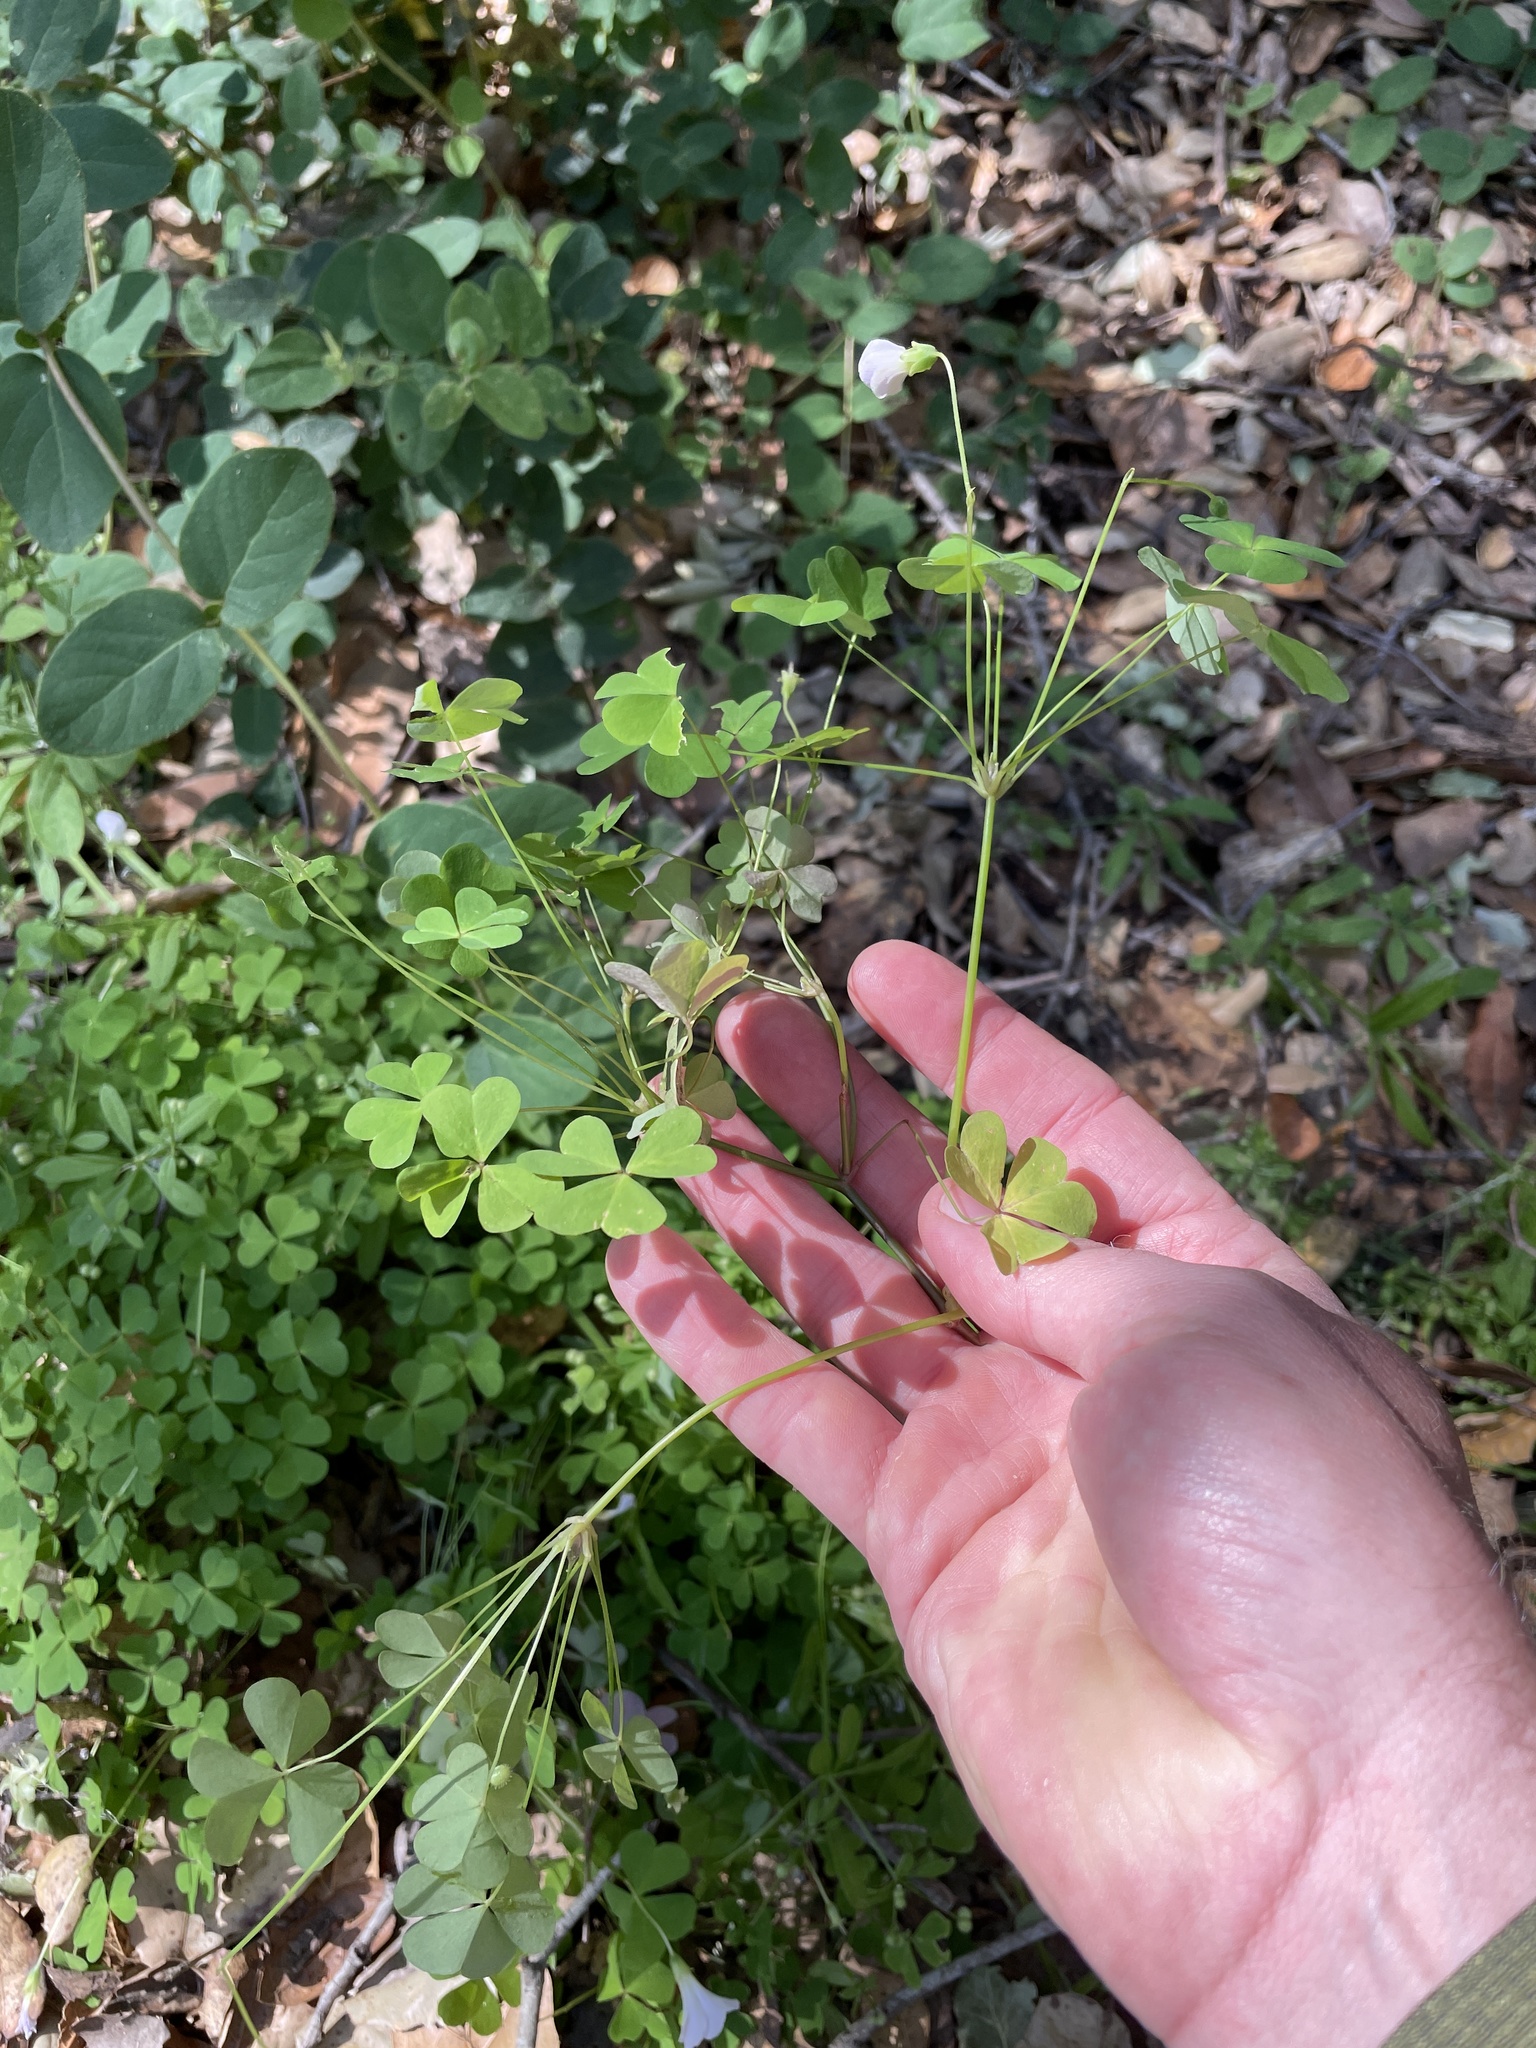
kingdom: Plantae
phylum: Tracheophyta
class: Magnoliopsida
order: Oxalidales
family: Oxalidaceae
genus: Oxalis
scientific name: Oxalis incarnata
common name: Pale pink-sorrel
